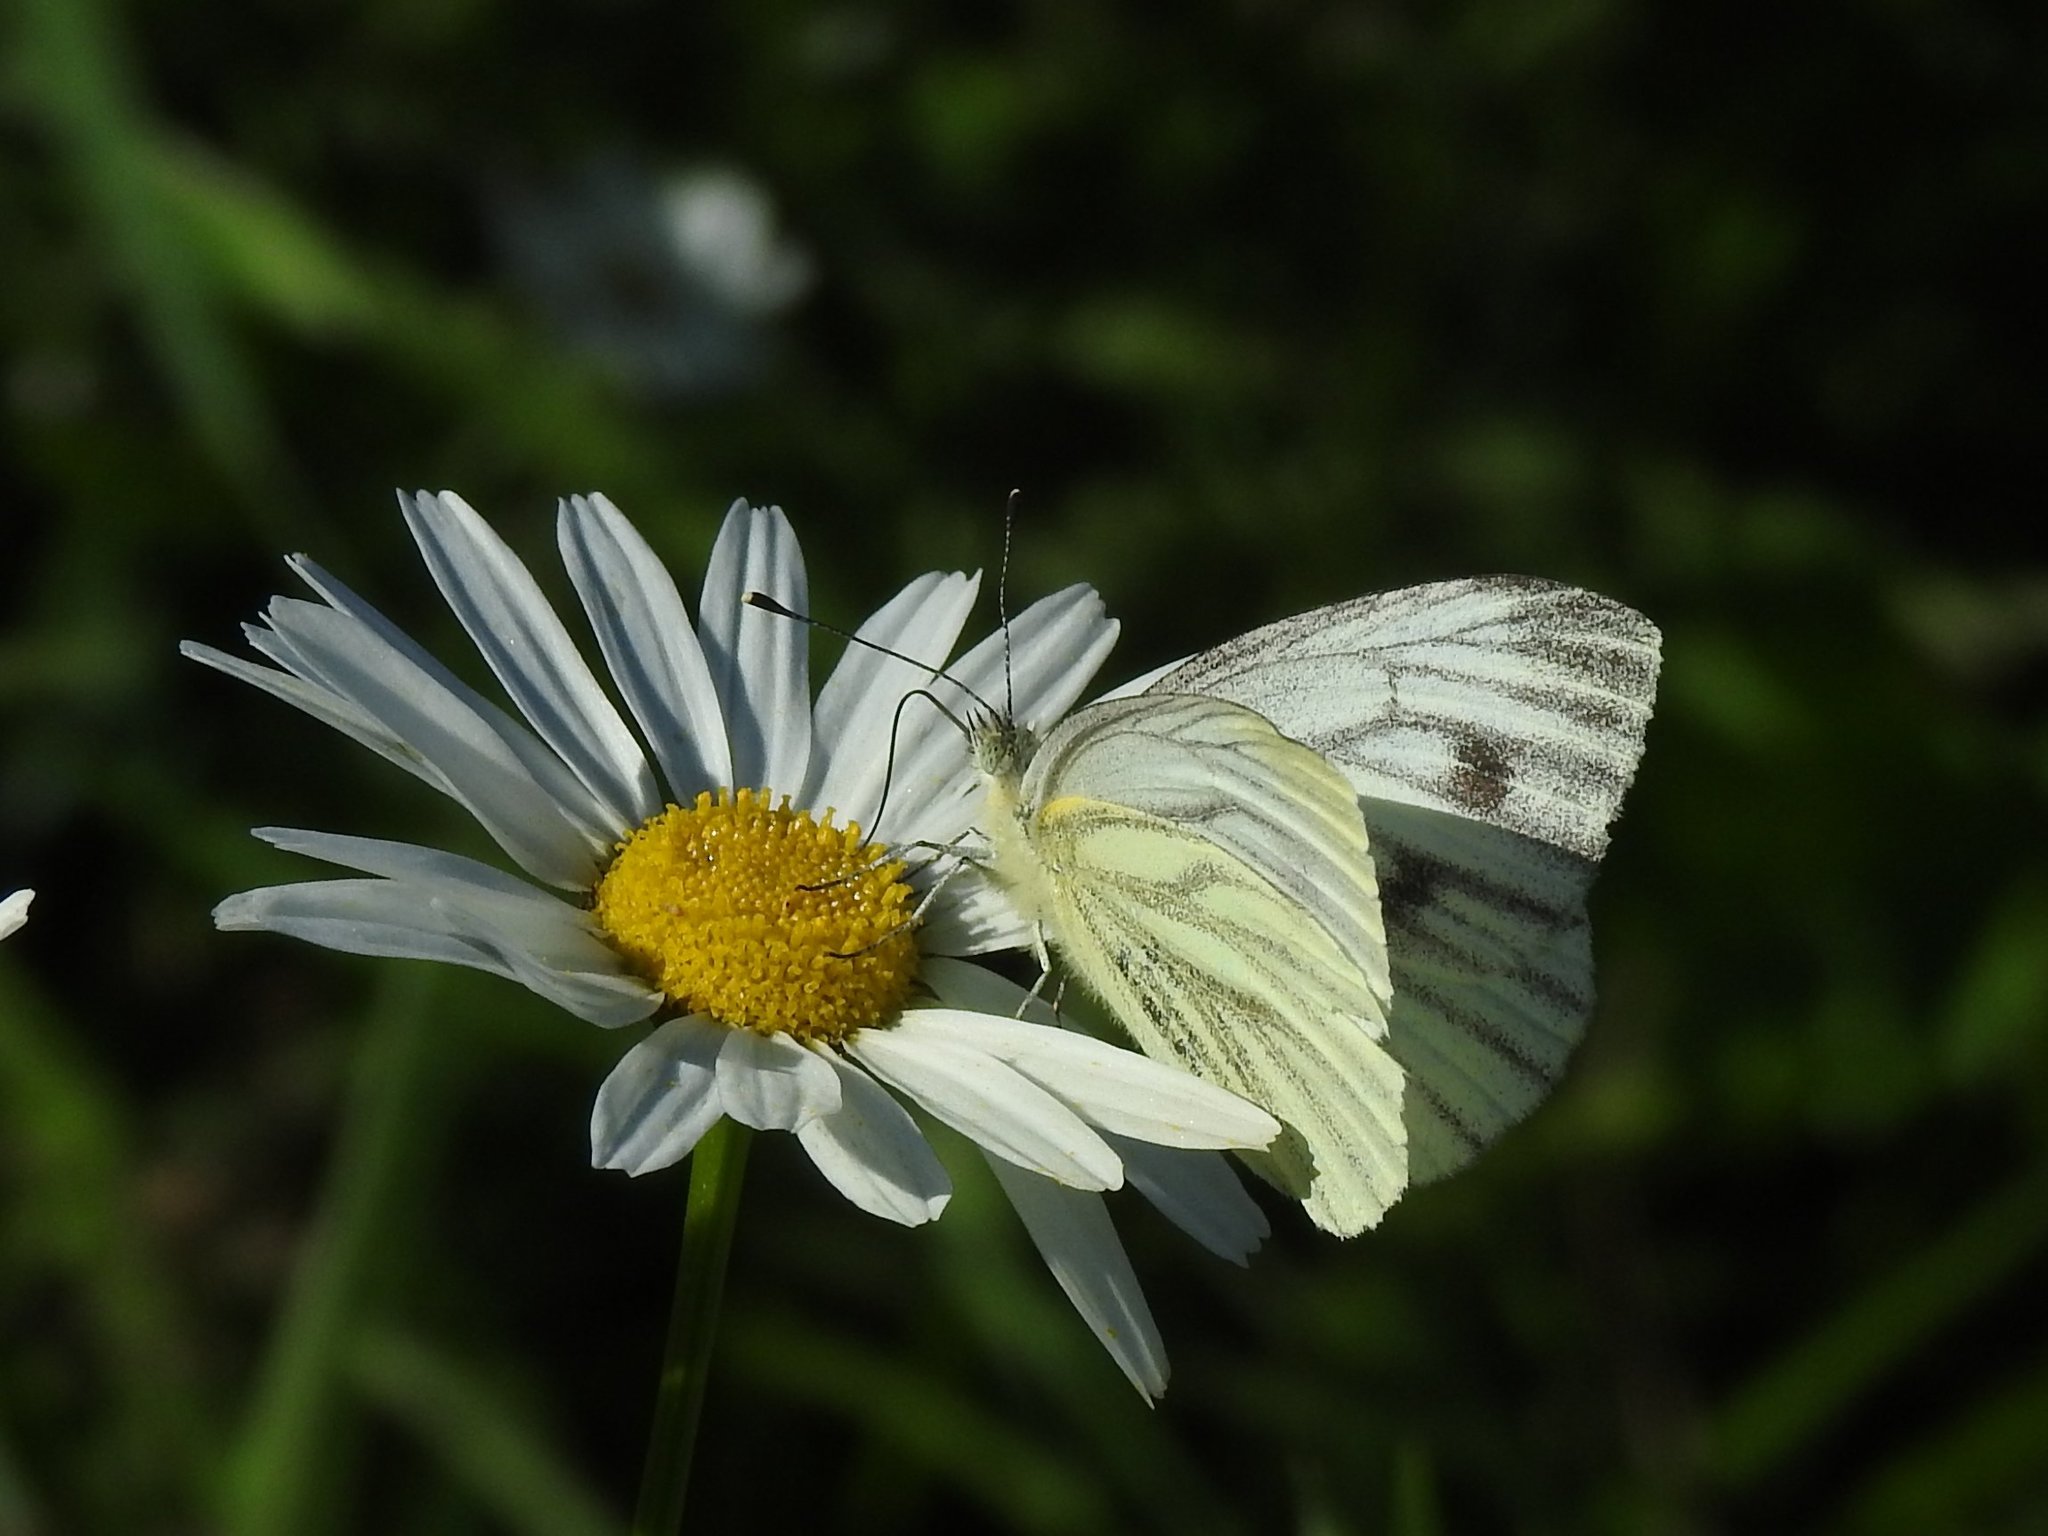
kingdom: Animalia
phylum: Arthropoda
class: Insecta
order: Lepidoptera
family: Pieridae
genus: Pieris
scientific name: Pieris napi
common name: Green-veined white
